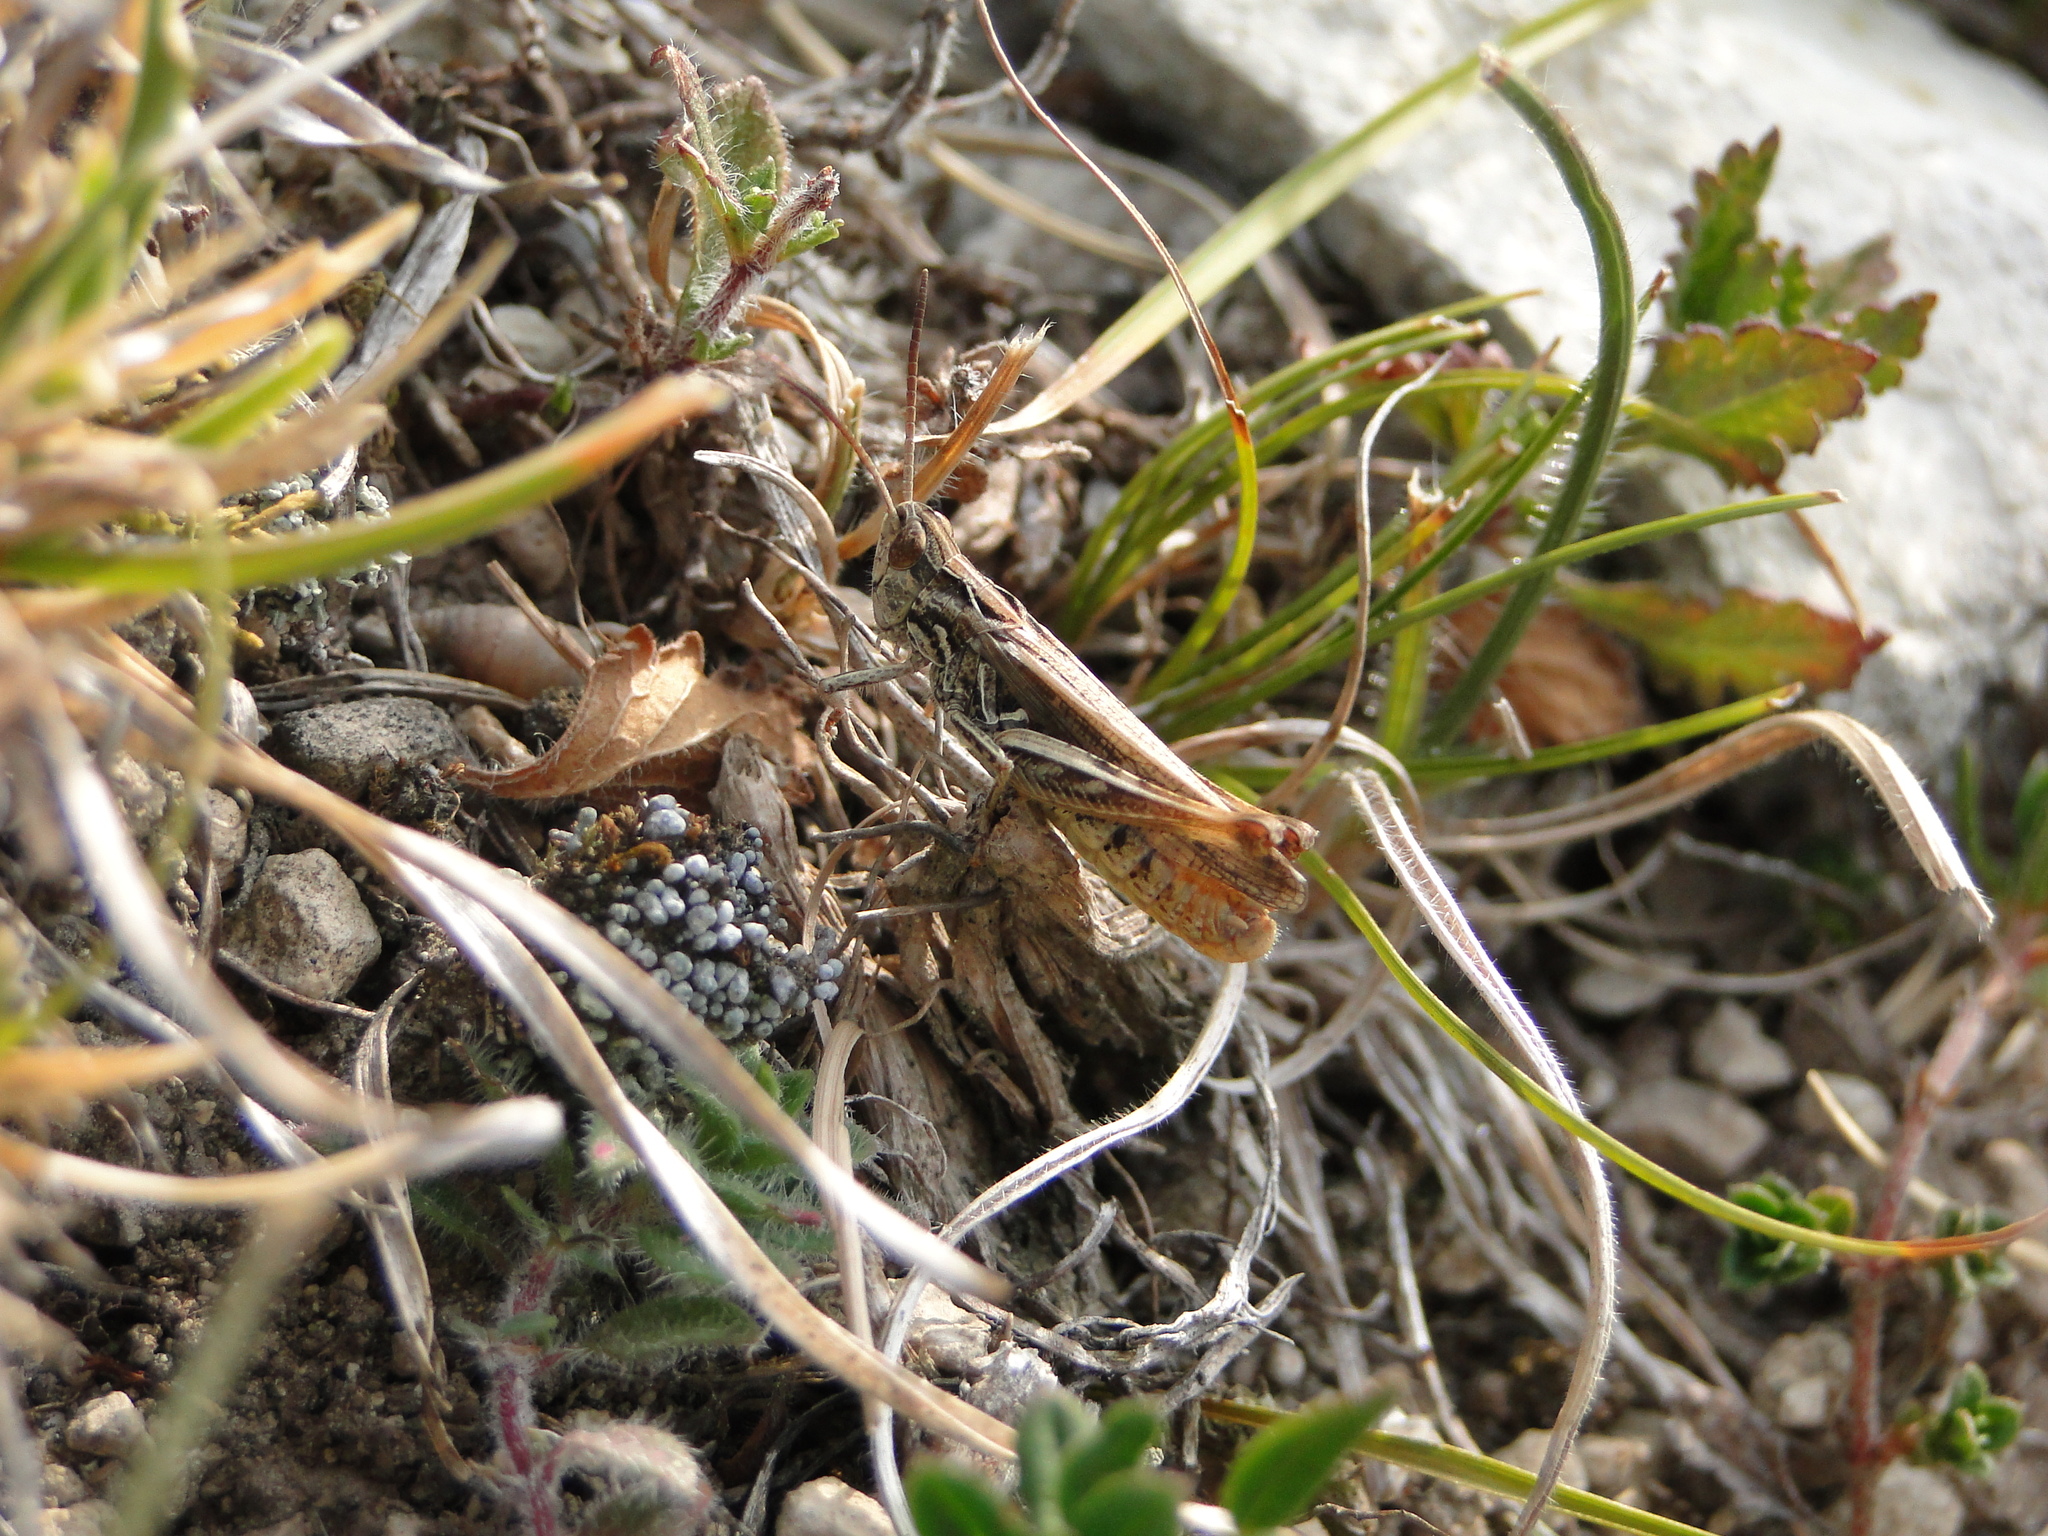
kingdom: Animalia
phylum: Arthropoda
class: Insecta
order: Orthoptera
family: Acrididae
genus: Chorthippus
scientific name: Chorthippus mollis
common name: Lesser field grasshopper
